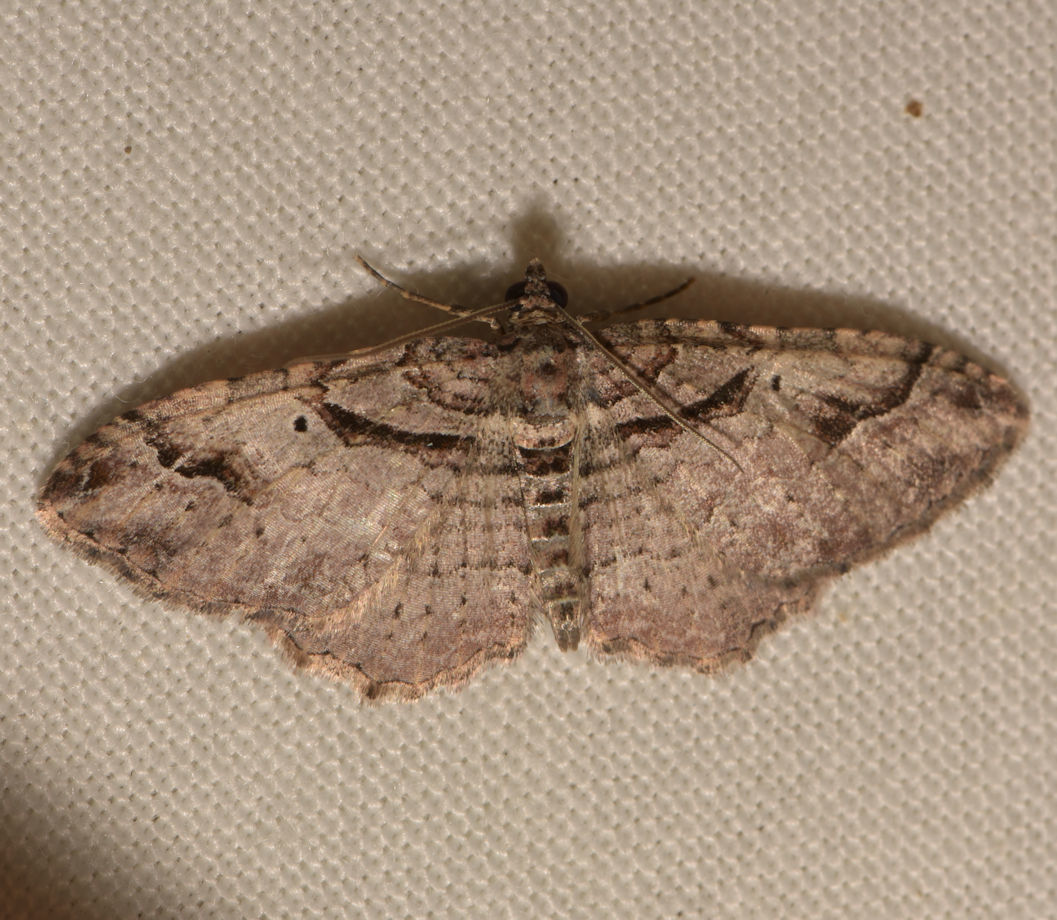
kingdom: Animalia
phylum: Arthropoda
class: Insecta
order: Lepidoptera
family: Geometridae
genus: Costaconvexa
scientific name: Costaconvexa centrostrigaria
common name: Bent-line carpet
